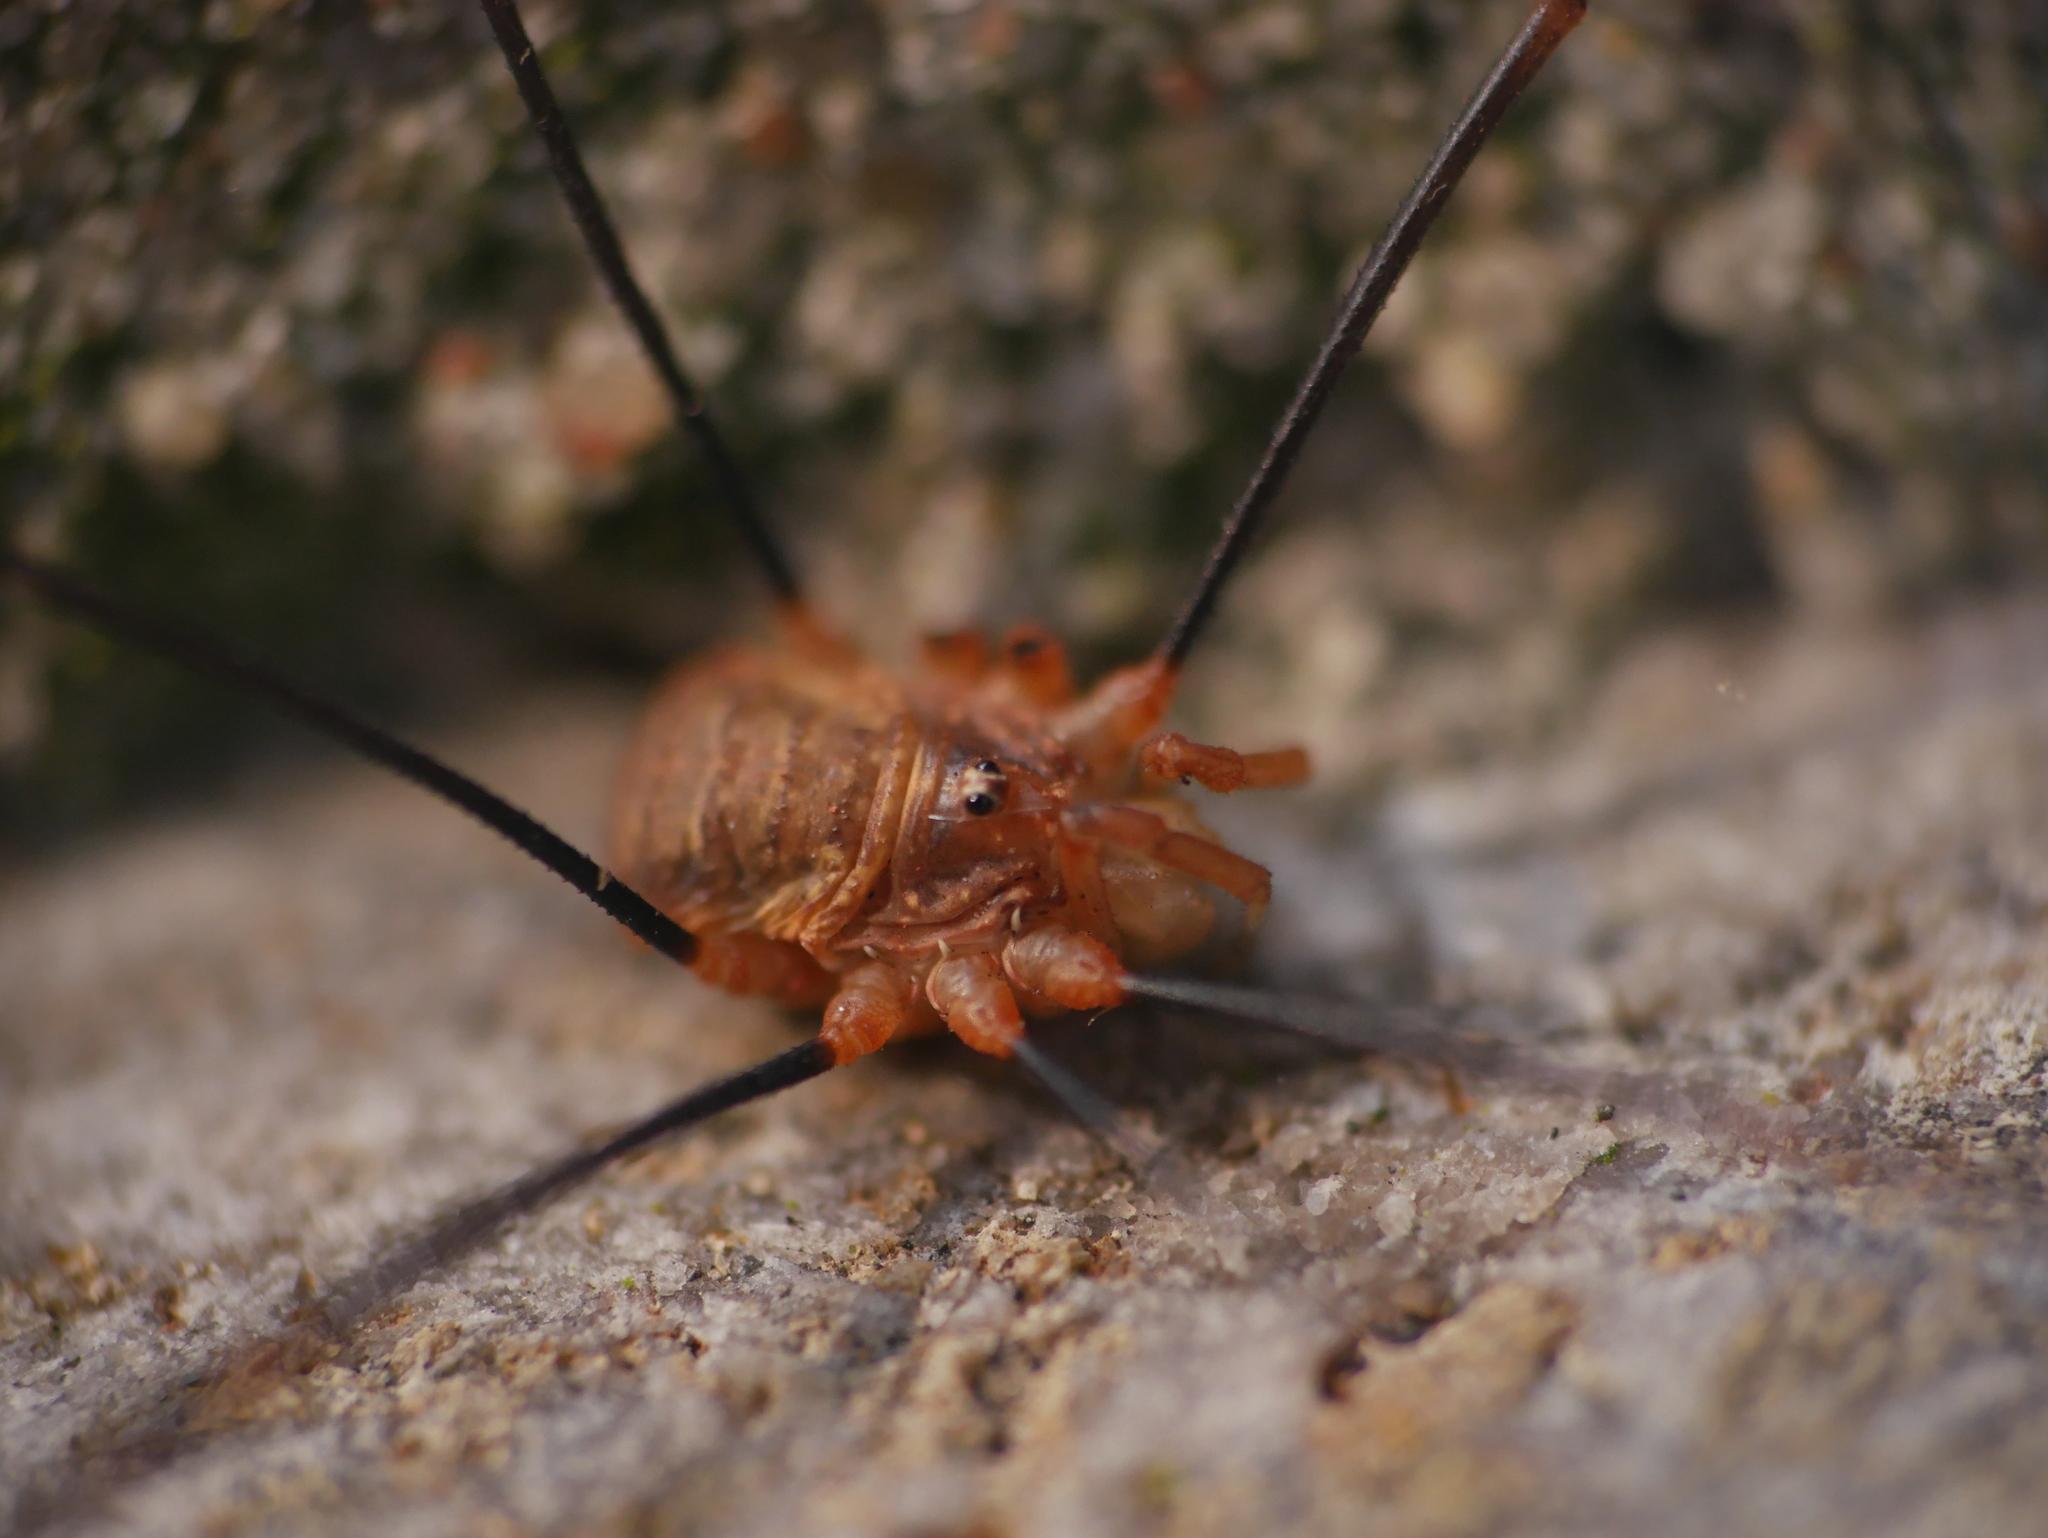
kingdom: Animalia
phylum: Arthropoda
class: Arachnida
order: Opiliones
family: Phalangiidae
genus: Opilio
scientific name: Opilio canestrinii
